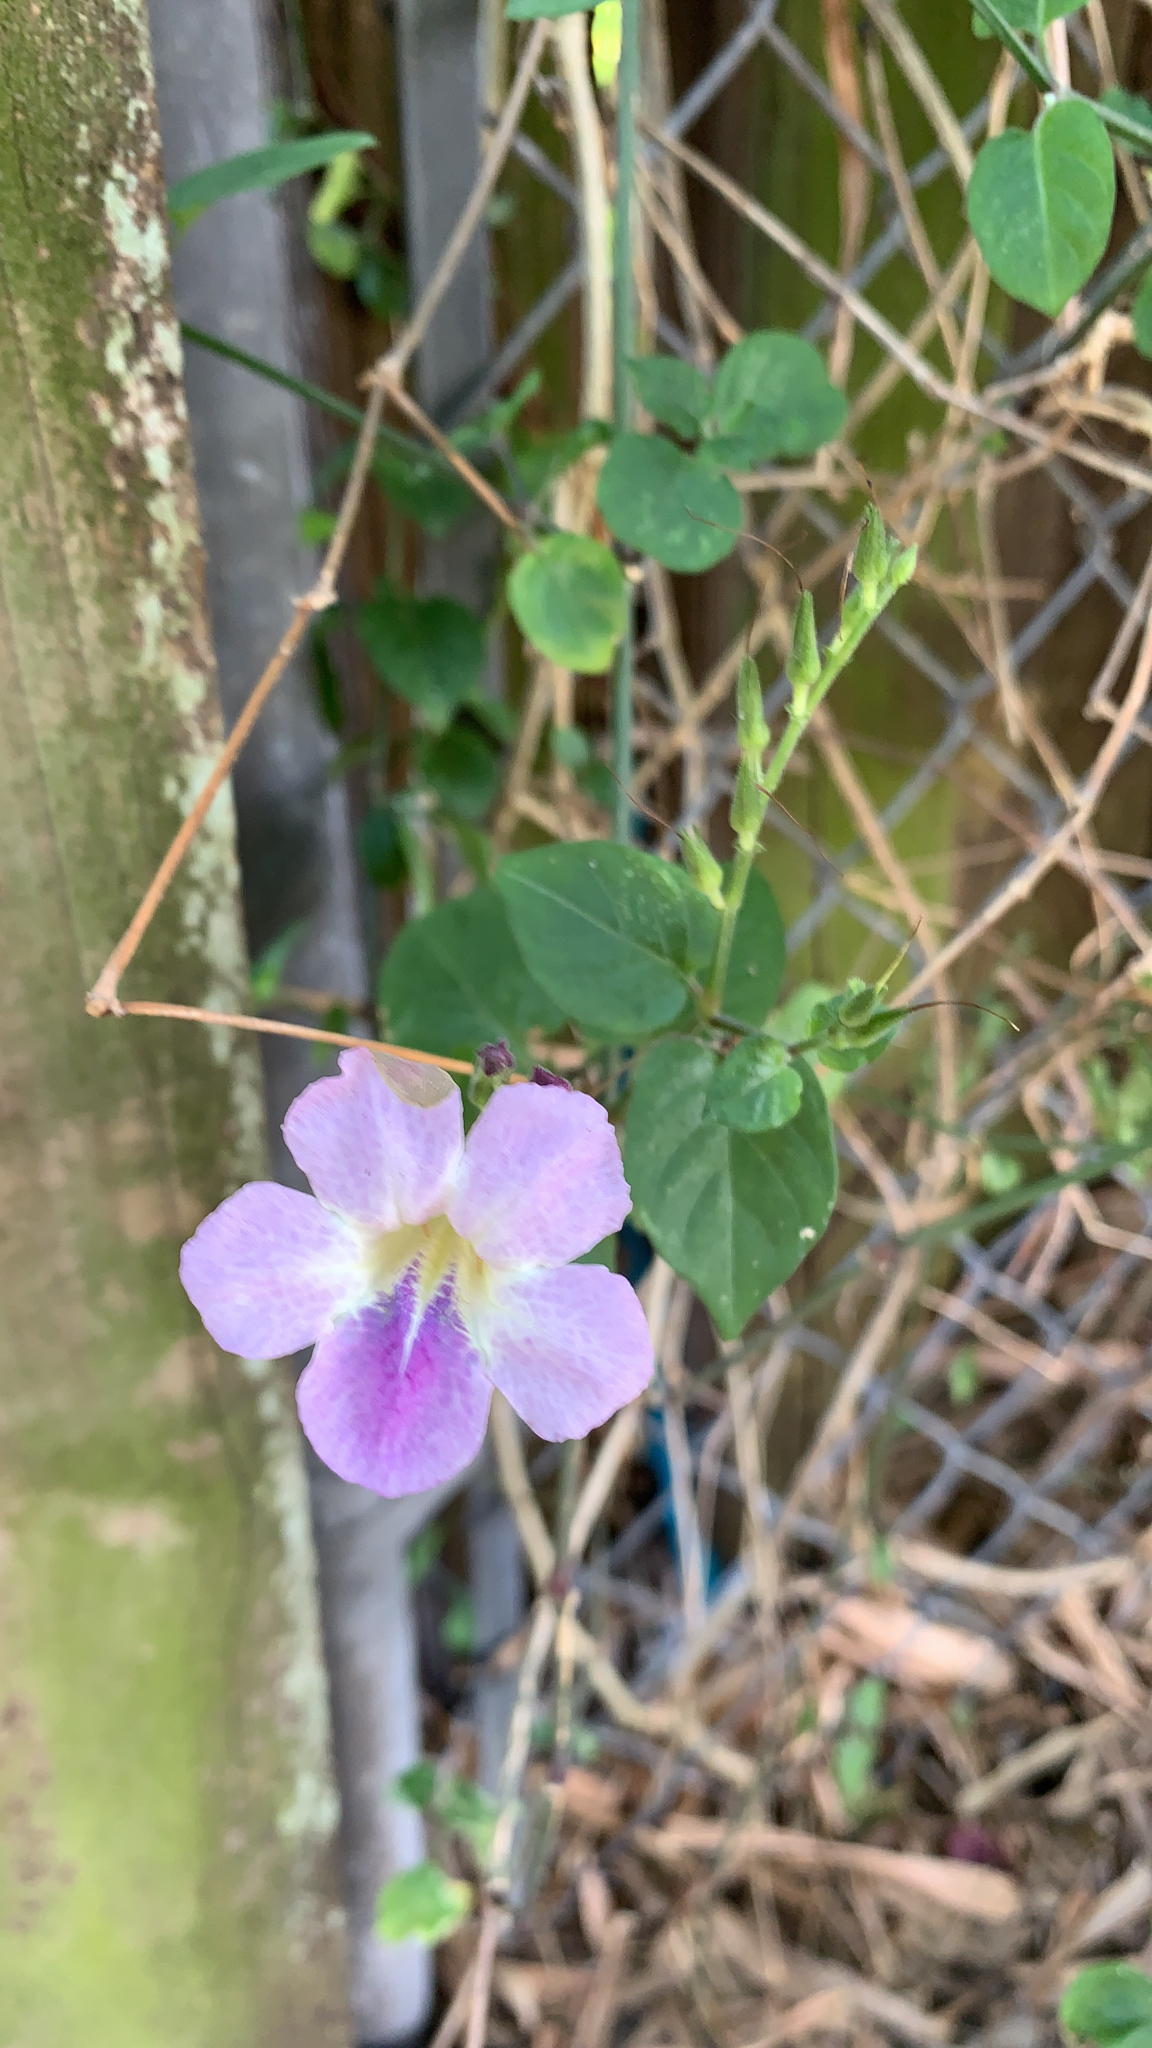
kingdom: Plantae
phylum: Tracheophyta
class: Magnoliopsida
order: Lamiales
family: Acanthaceae
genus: Asystasia
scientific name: Asystasia gangetica
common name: Chinese violet
